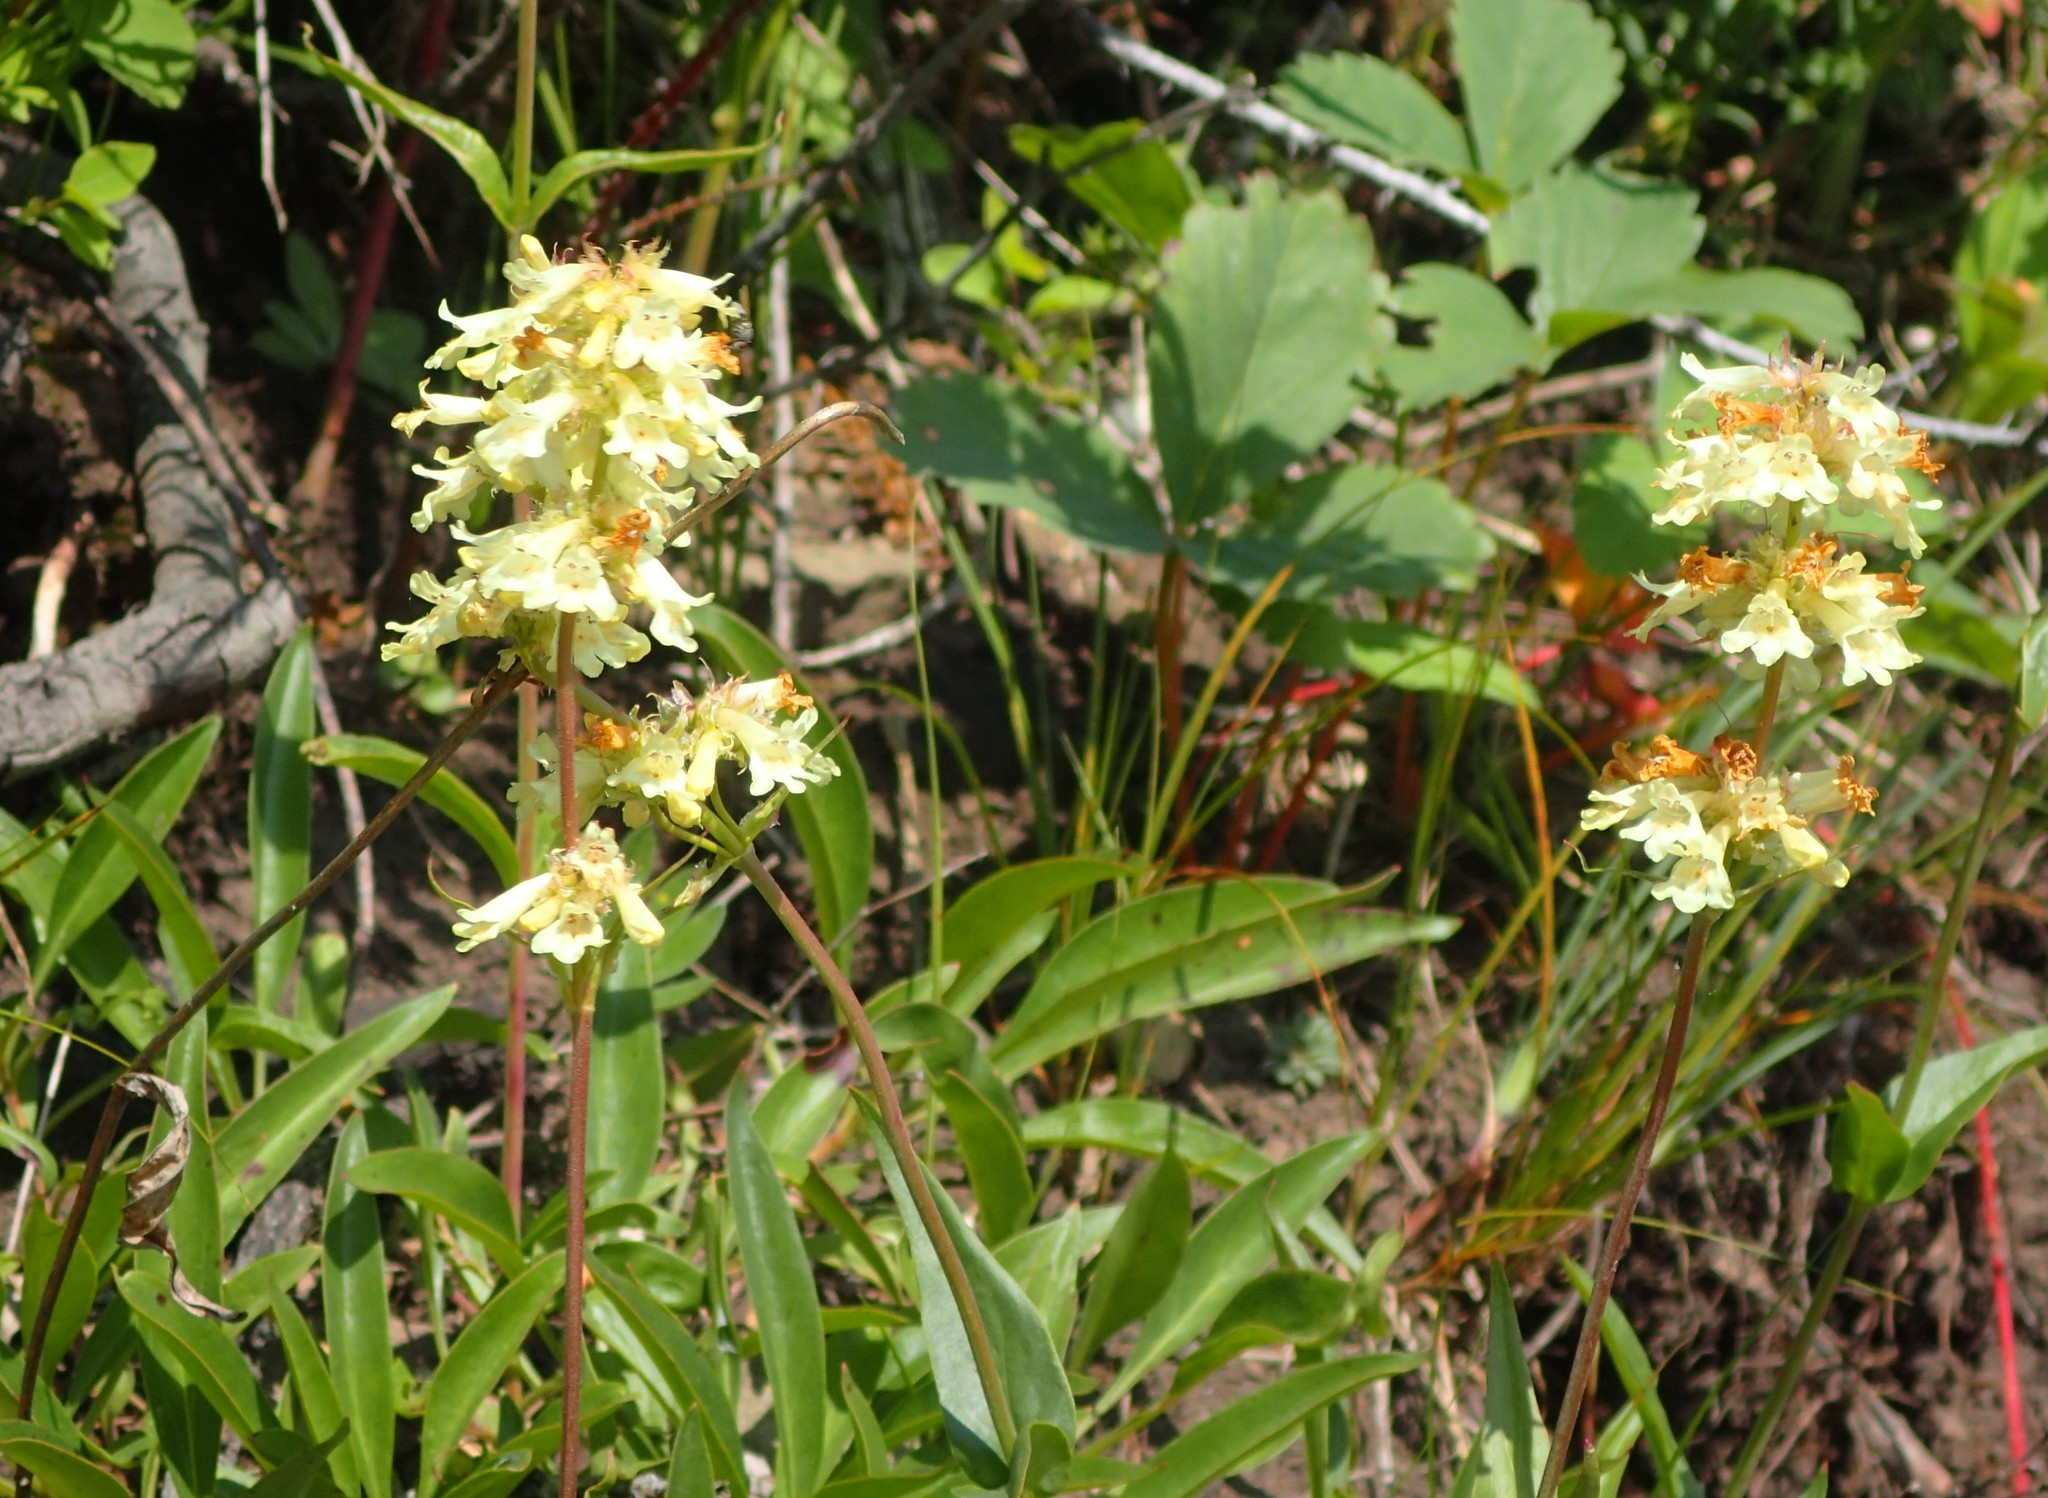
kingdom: Plantae
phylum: Tracheophyta
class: Magnoliopsida
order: Lamiales
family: Plantaginaceae
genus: Penstemon
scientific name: Penstemon confertus
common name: Lesser yellow beardtongue
